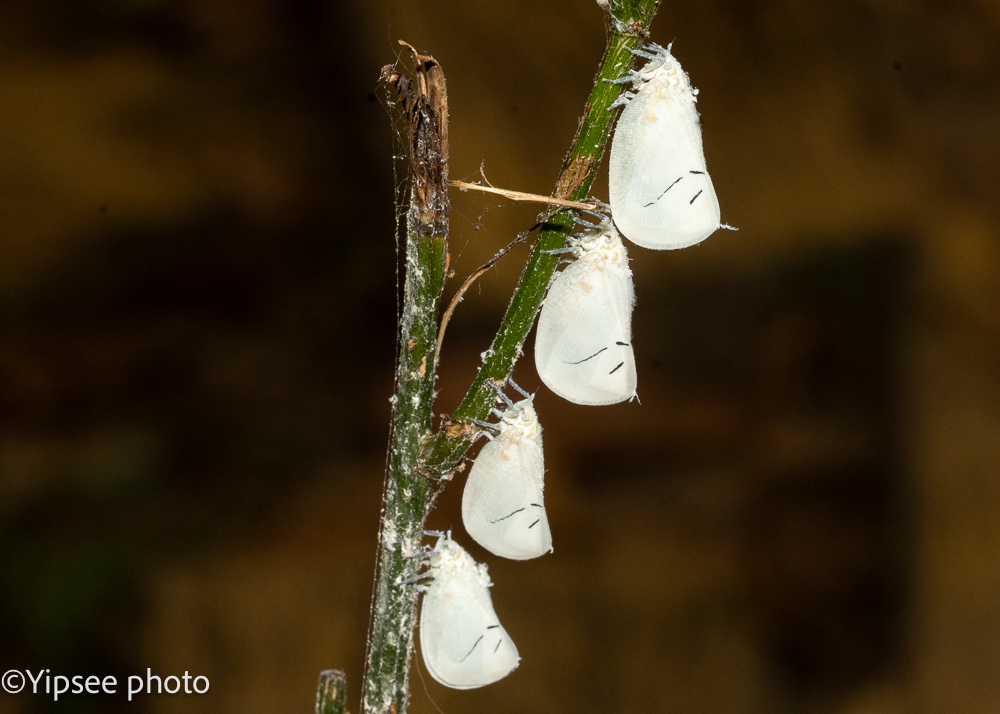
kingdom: Animalia
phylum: Arthropoda
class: Insecta
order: Hemiptera
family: Flatidae
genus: Cerynia
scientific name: Cerynia maria
